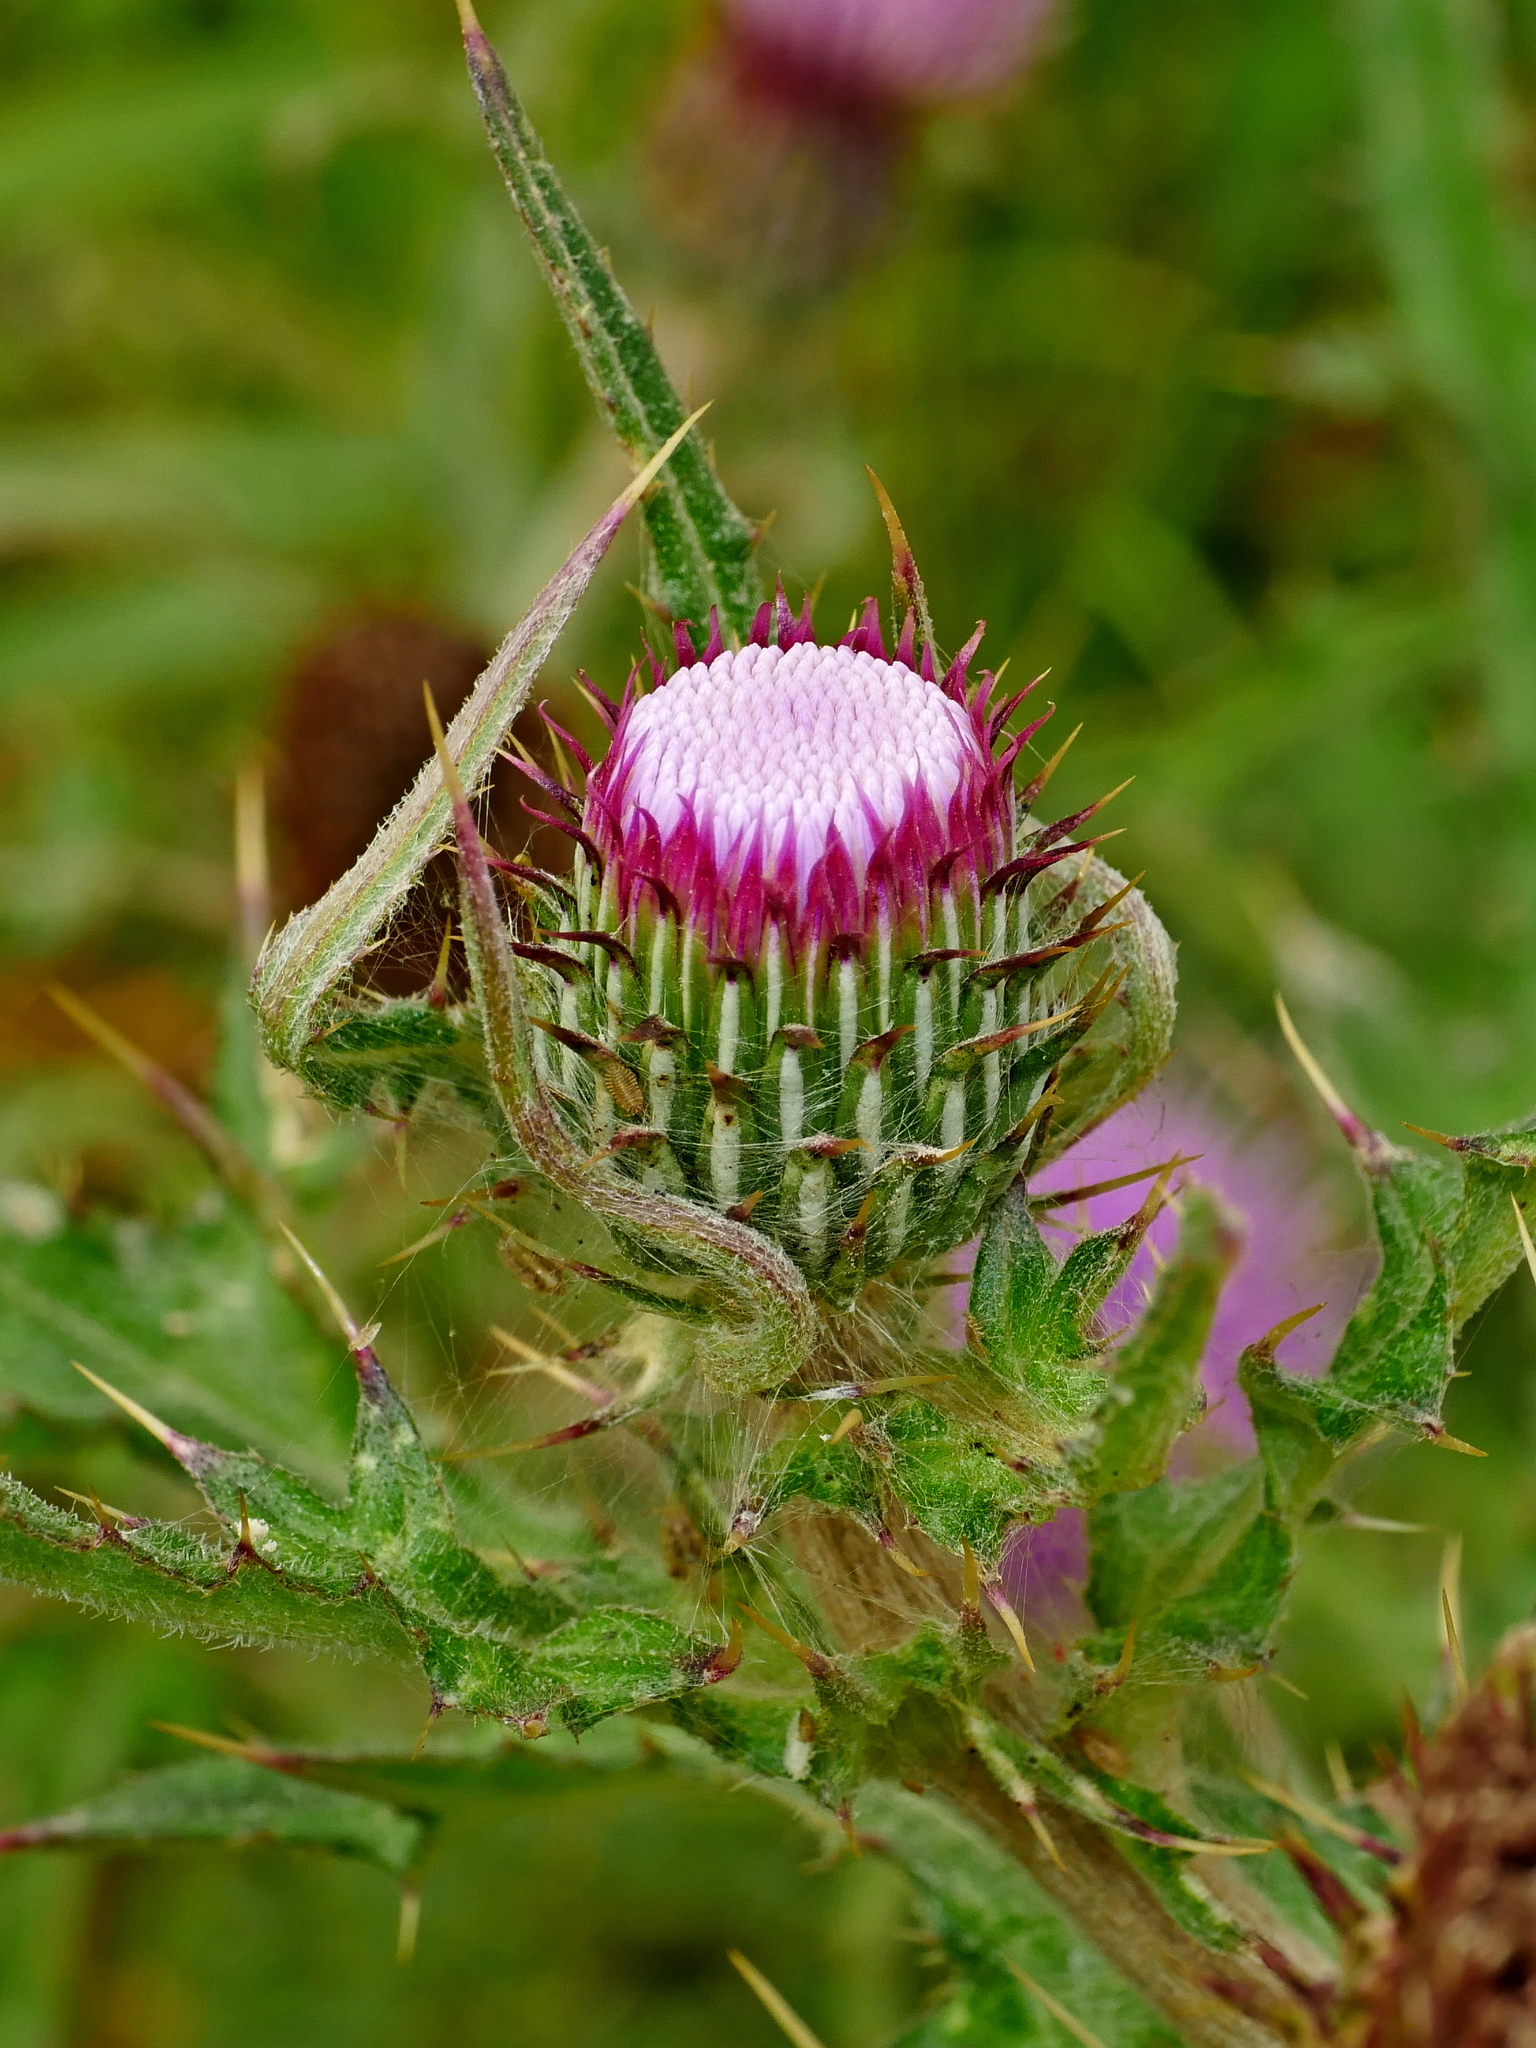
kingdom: Plantae
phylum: Tracheophyta
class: Magnoliopsida
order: Asterales
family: Asteraceae
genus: Cirsium
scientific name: Cirsium japonicum
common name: Japanese thistle
